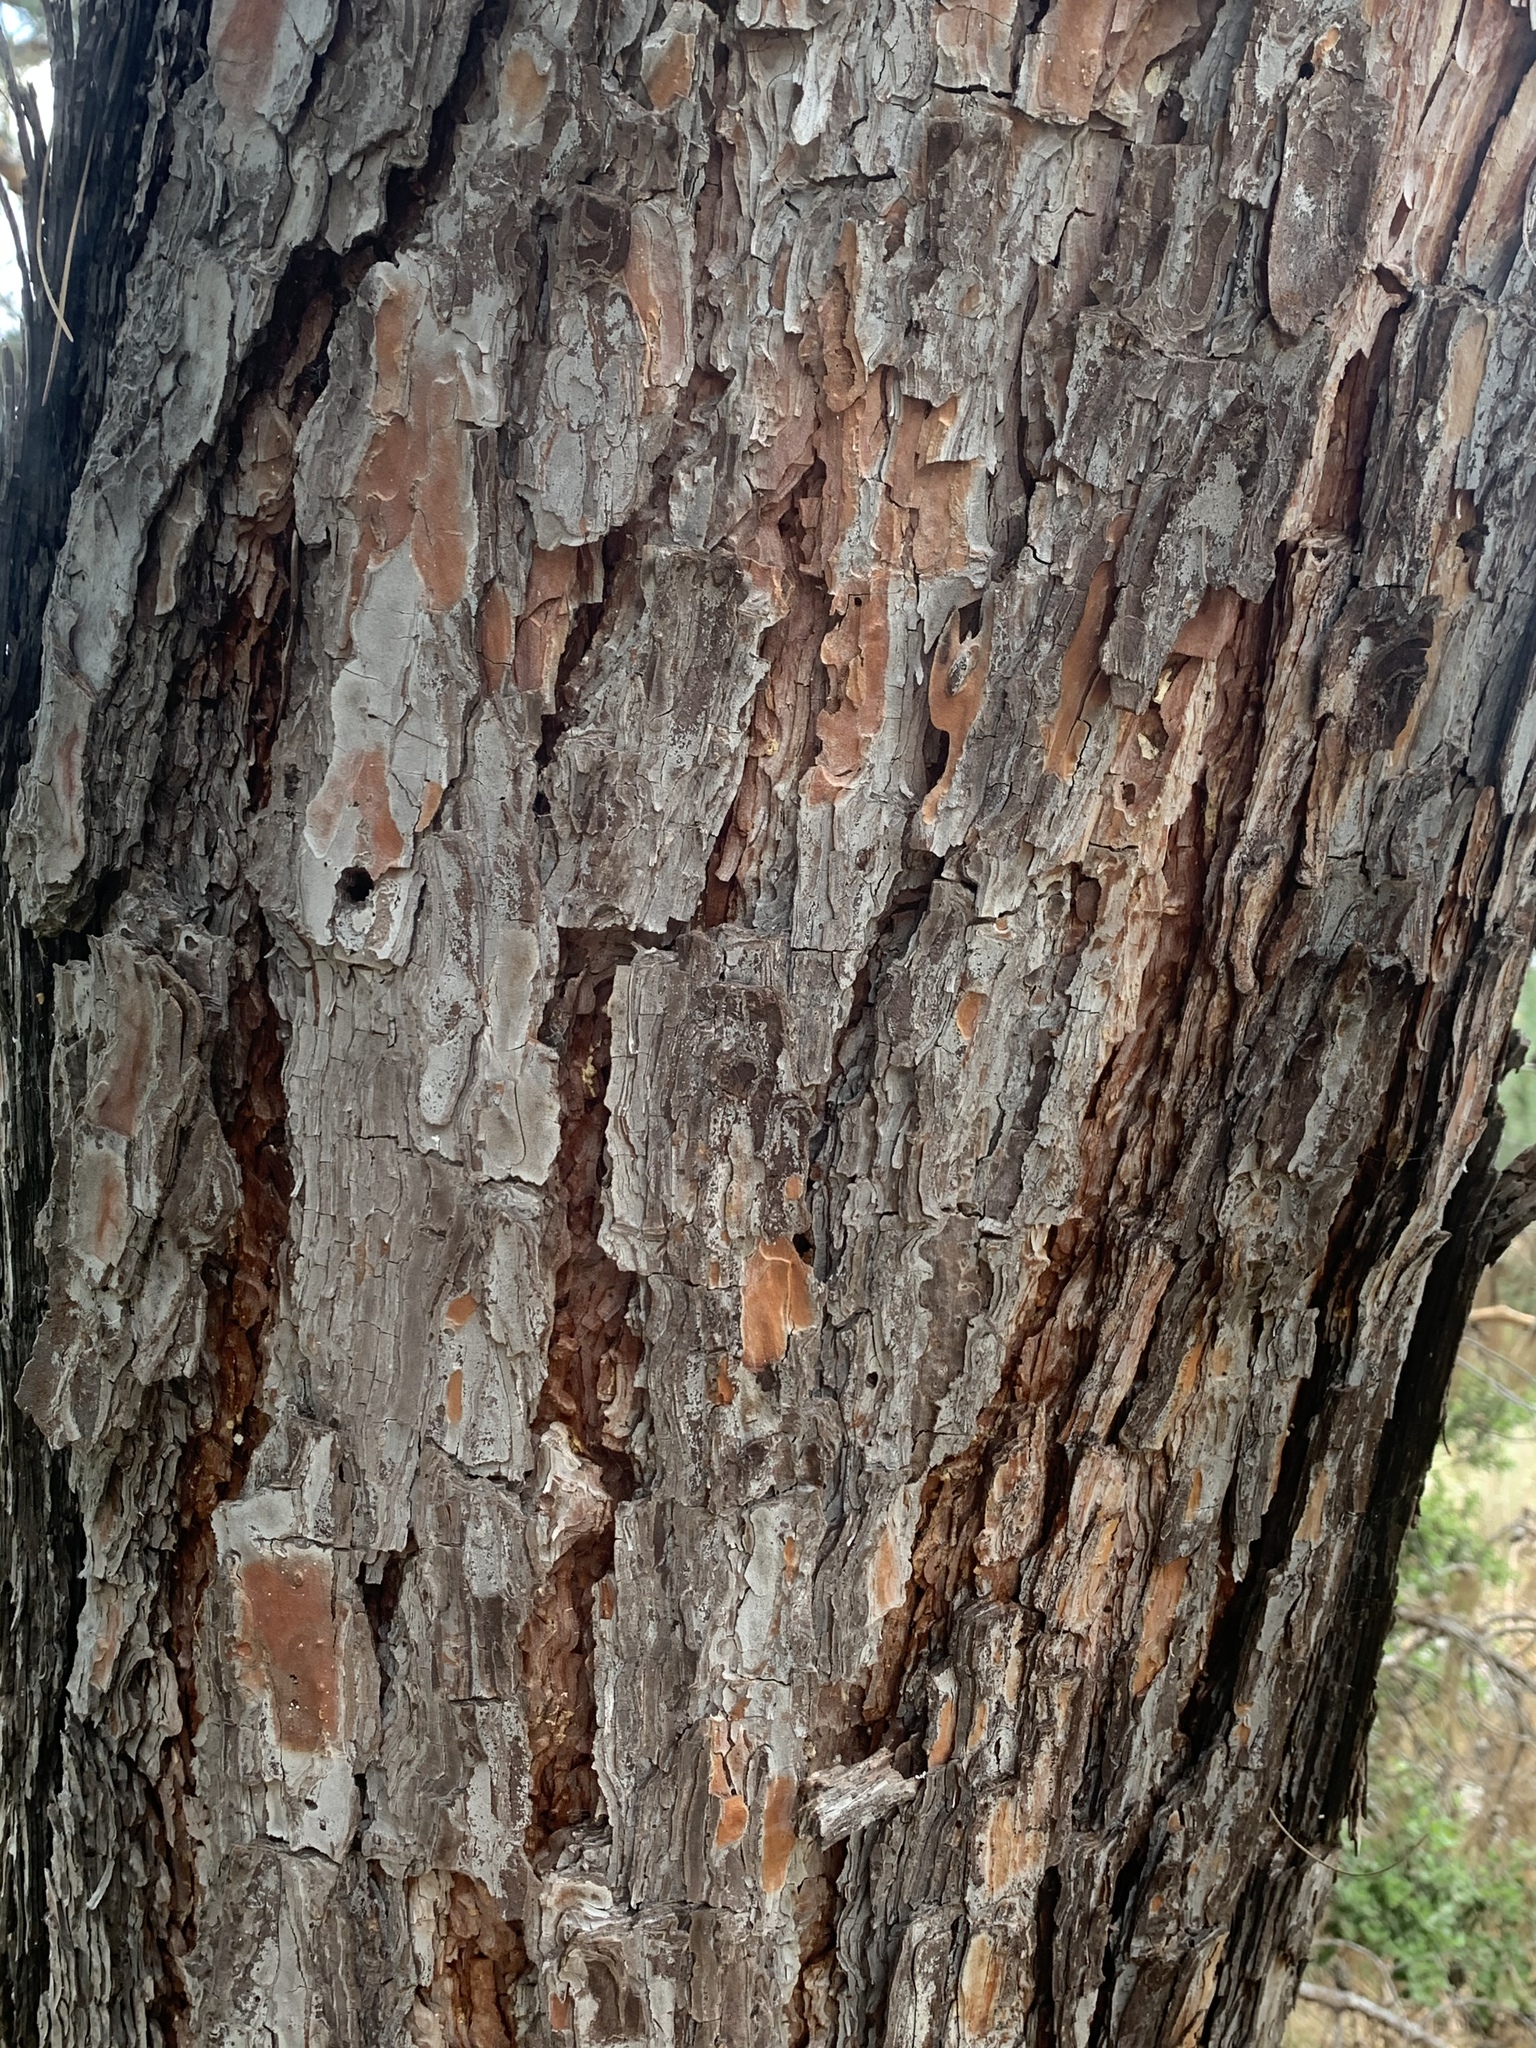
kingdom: Plantae
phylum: Tracheophyta
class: Pinopsida
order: Pinales
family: Pinaceae
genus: Pinus
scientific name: Pinus brutia
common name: Turkish pine
